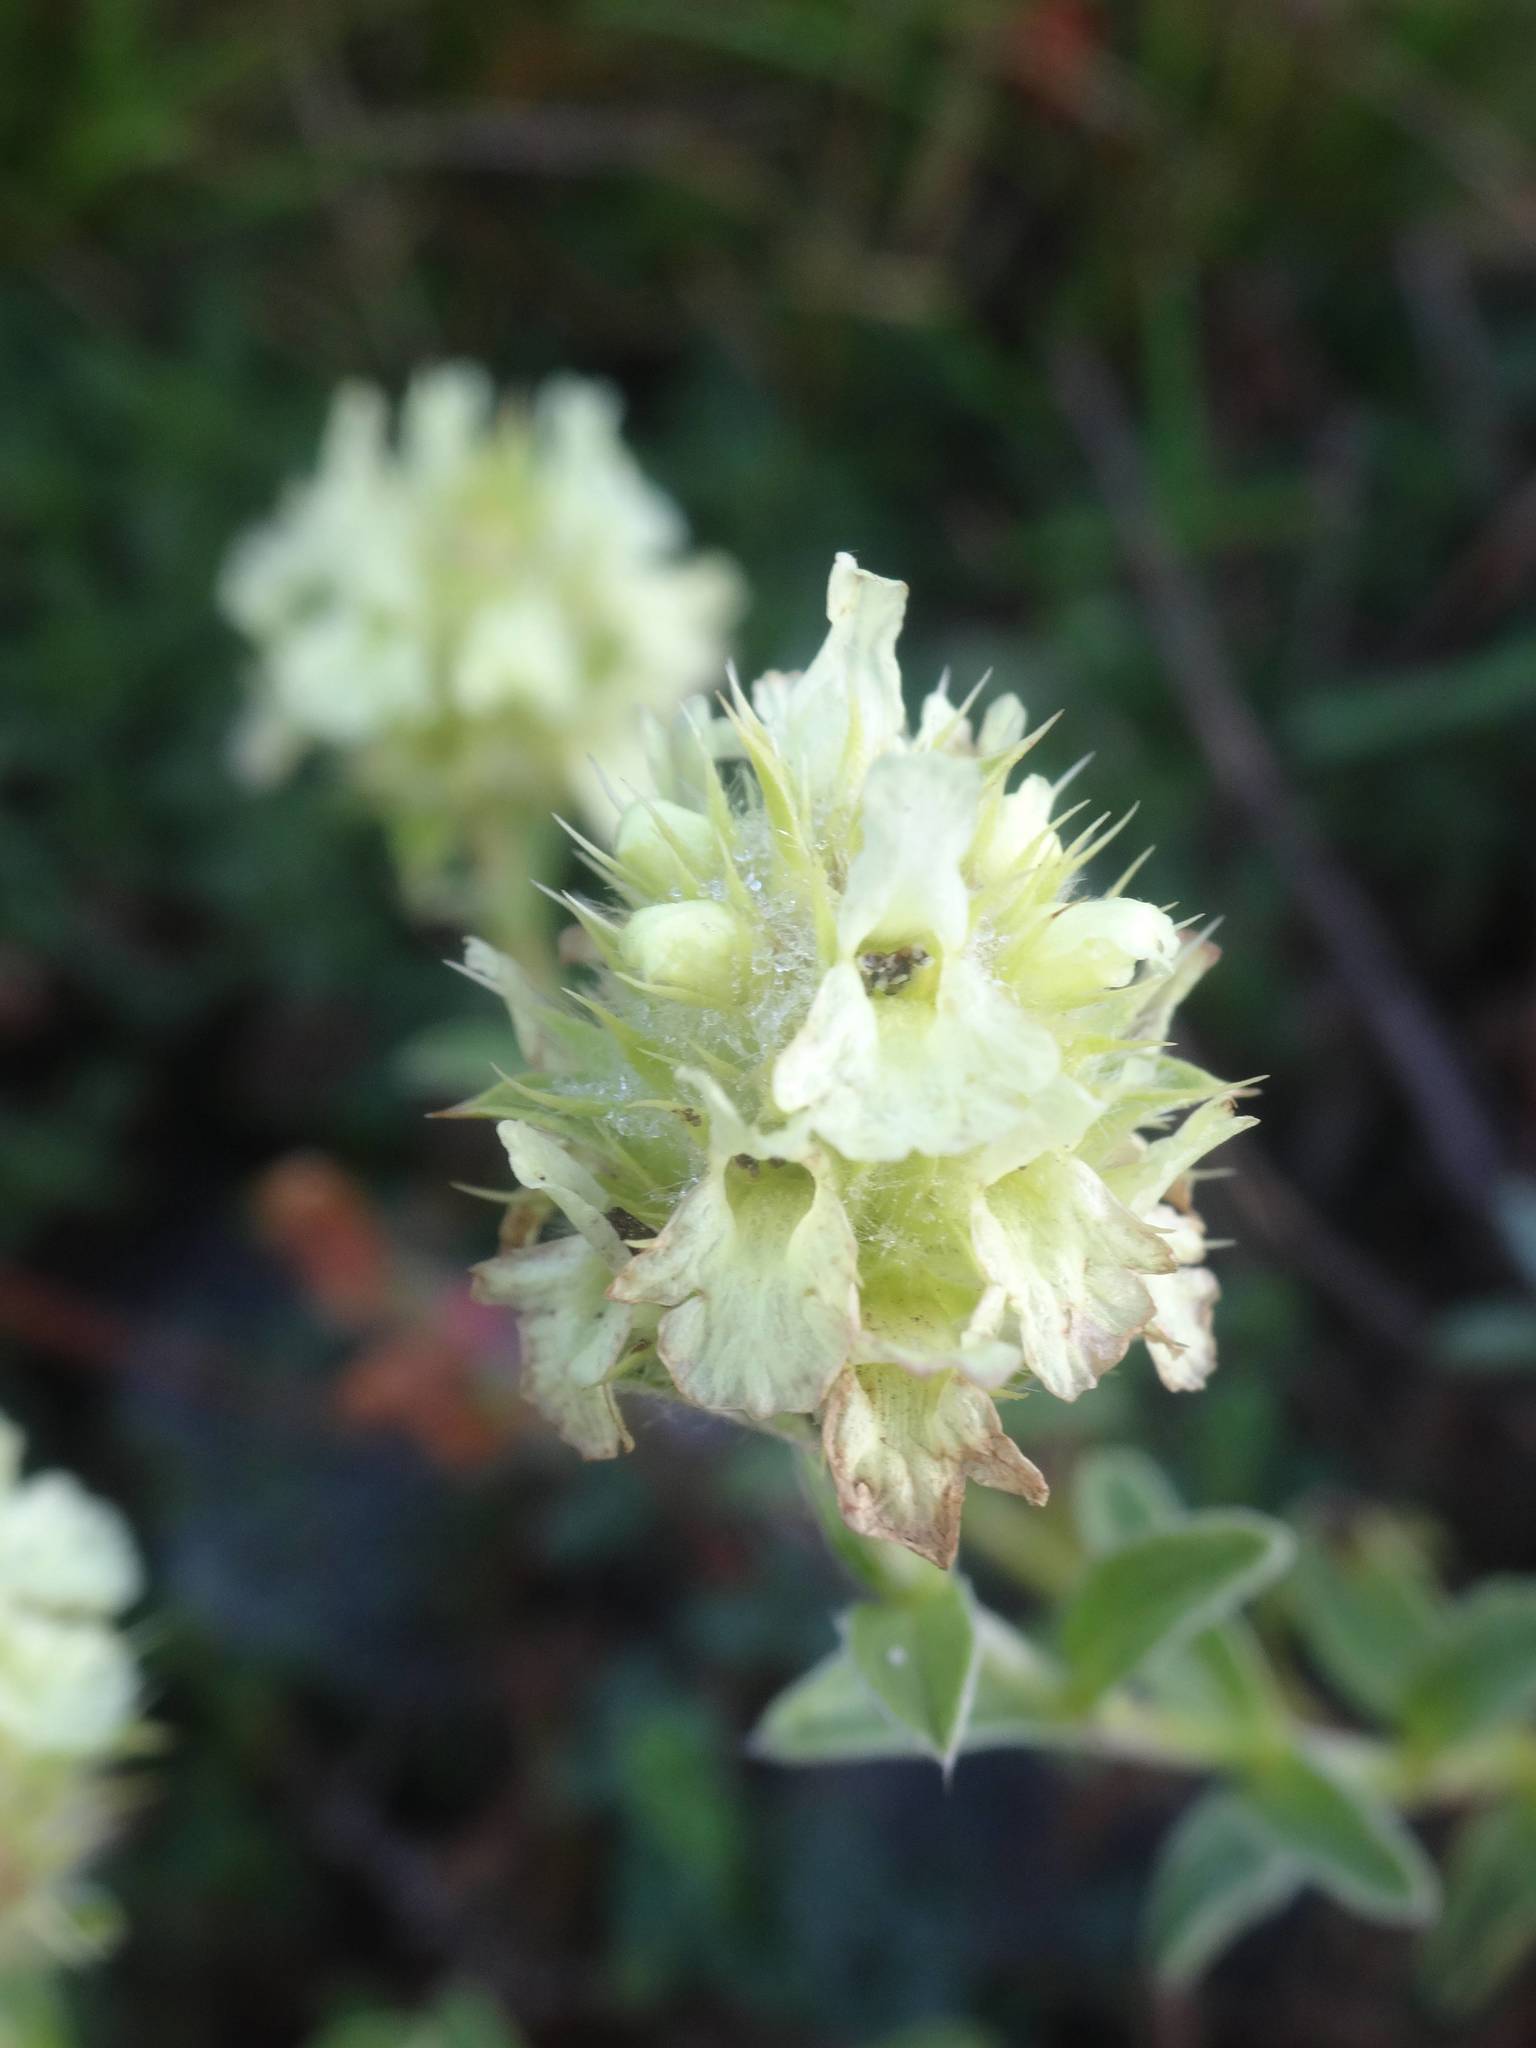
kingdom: Plantae
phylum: Tracheophyta
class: Magnoliopsida
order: Lamiales
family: Lamiaceae
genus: Sideritis
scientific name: Sideritis hyssopifolia
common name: Mountain tea
